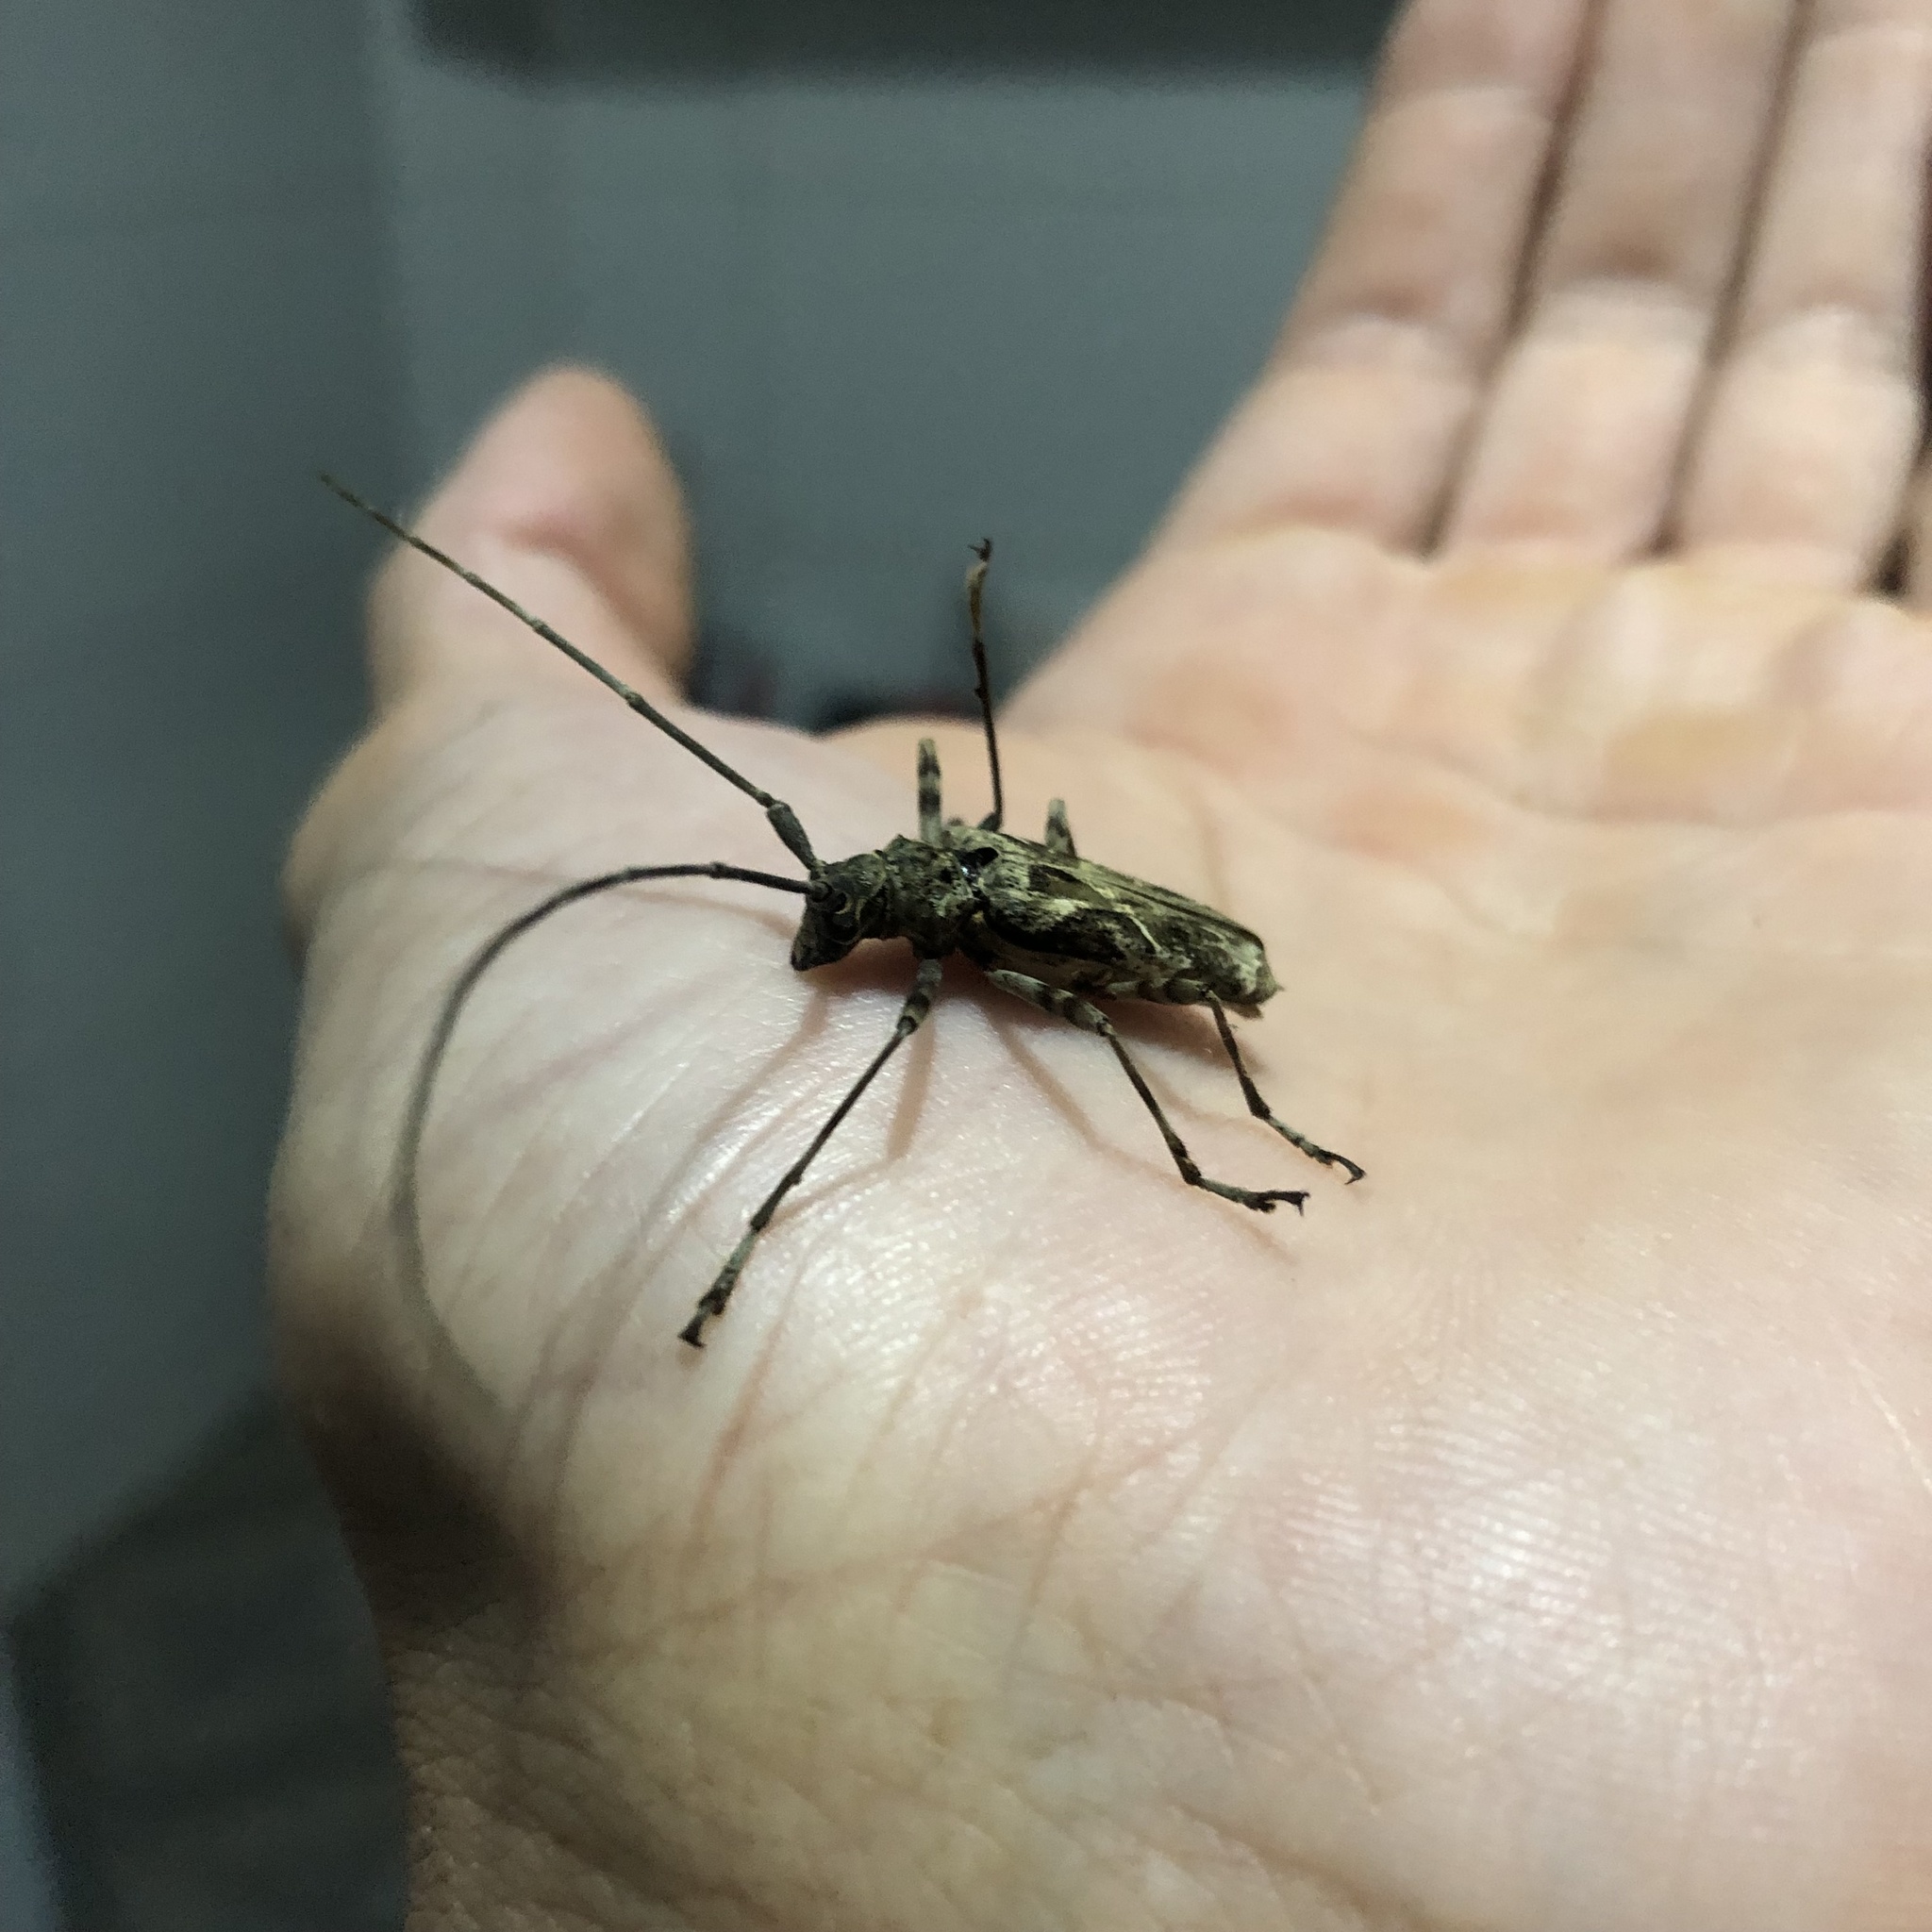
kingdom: Animalia
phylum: Arthropoda
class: Insecta
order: Coleoptera
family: Cerambycidae
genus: Macropophora
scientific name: Macropophora accentifer
